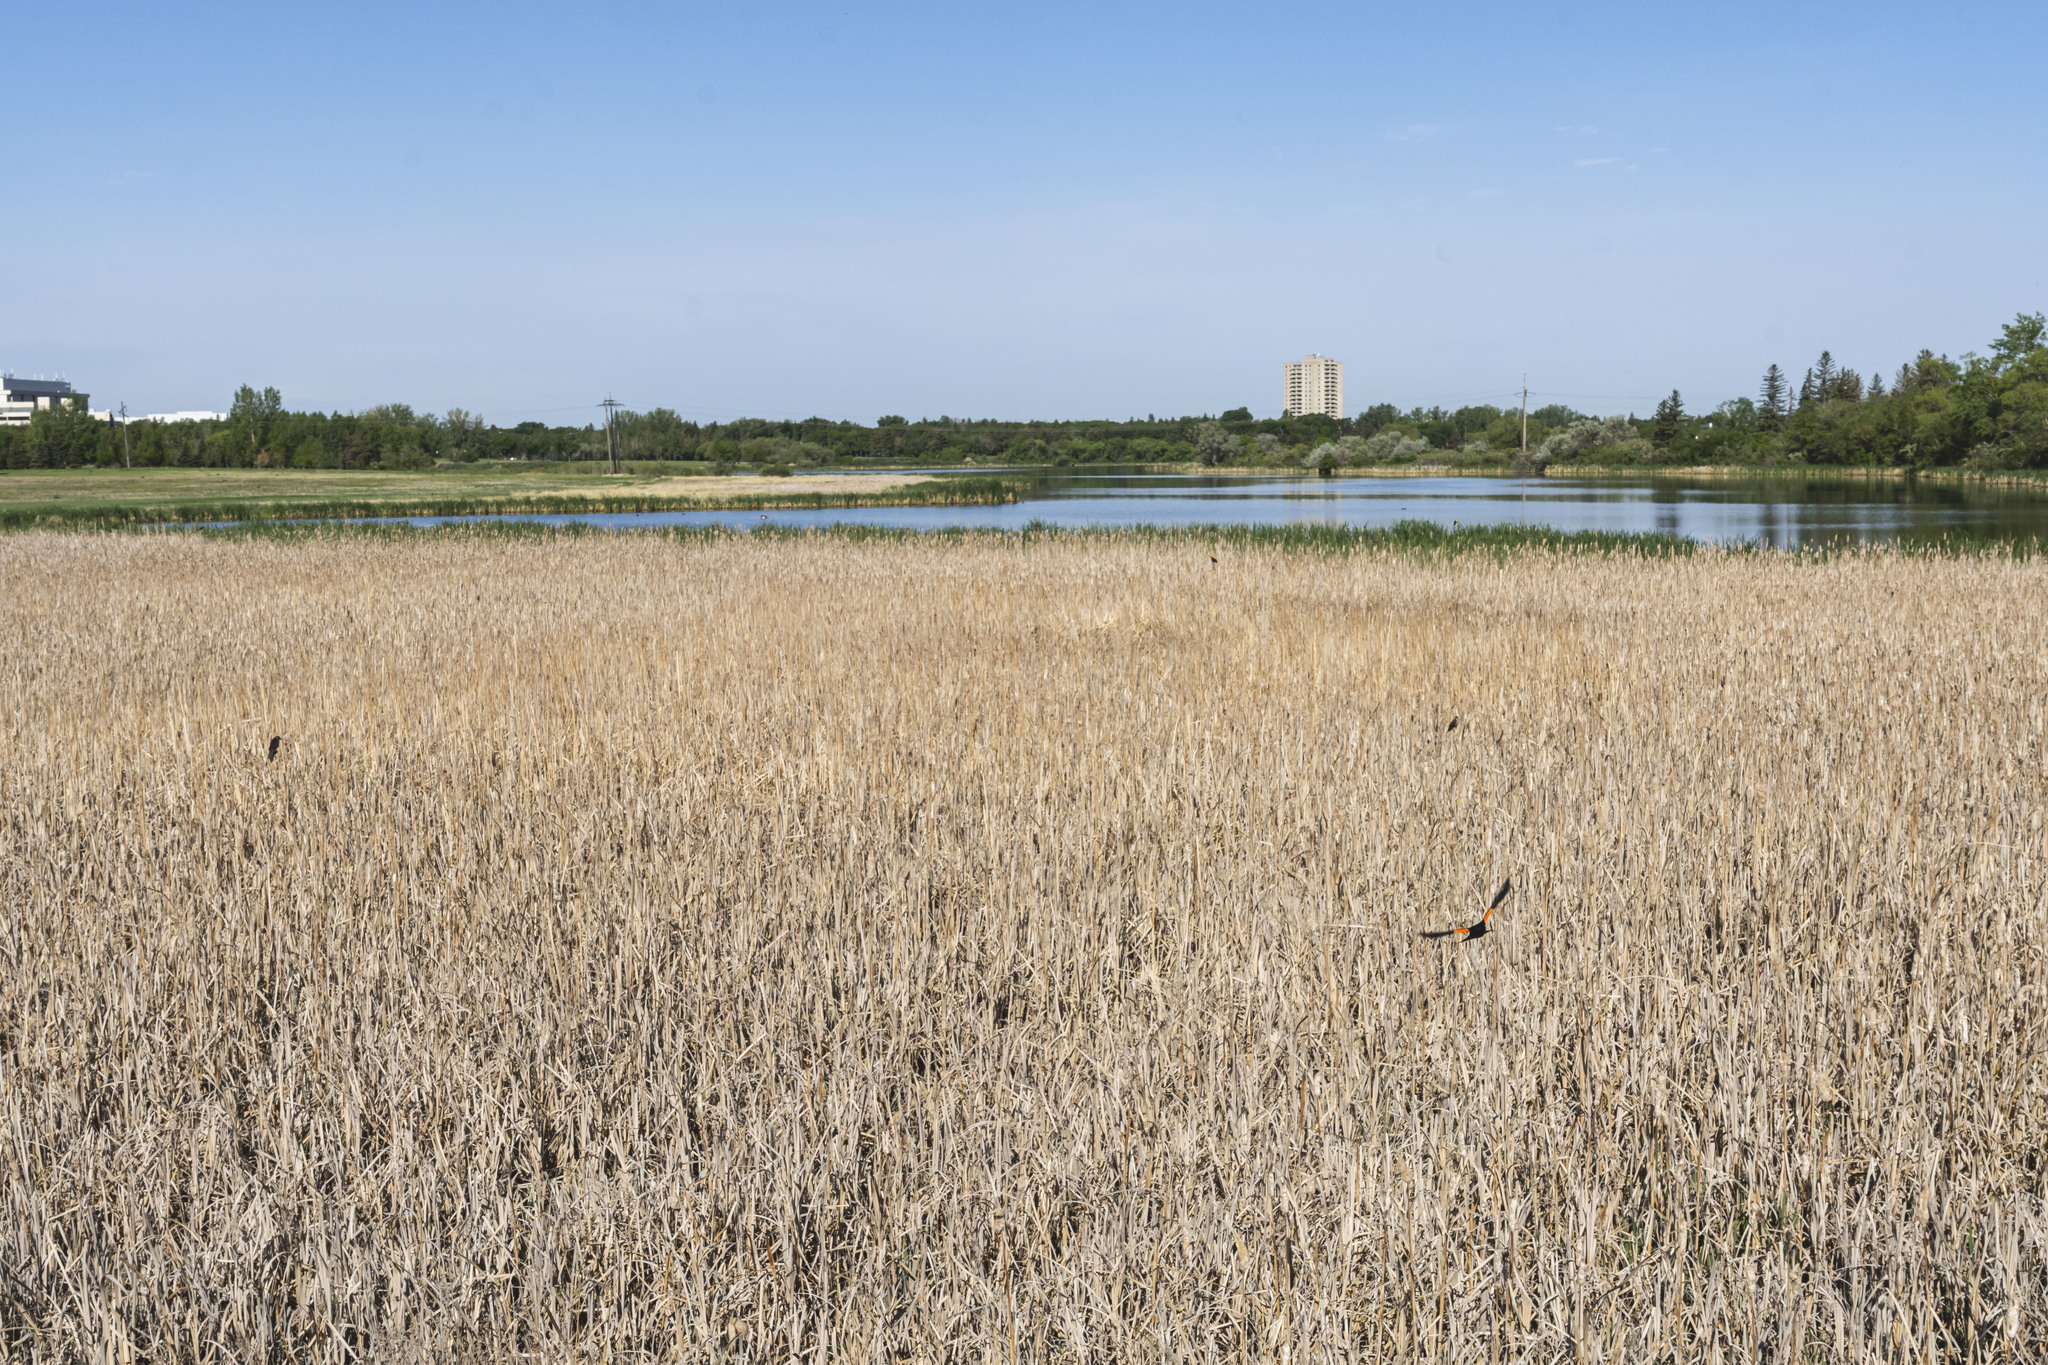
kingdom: Plantae
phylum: Tracheophyta
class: Liliopsida
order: Poales
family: Typhaceae
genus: Typha
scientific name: Typha latifolia
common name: Broadleaf cattail
